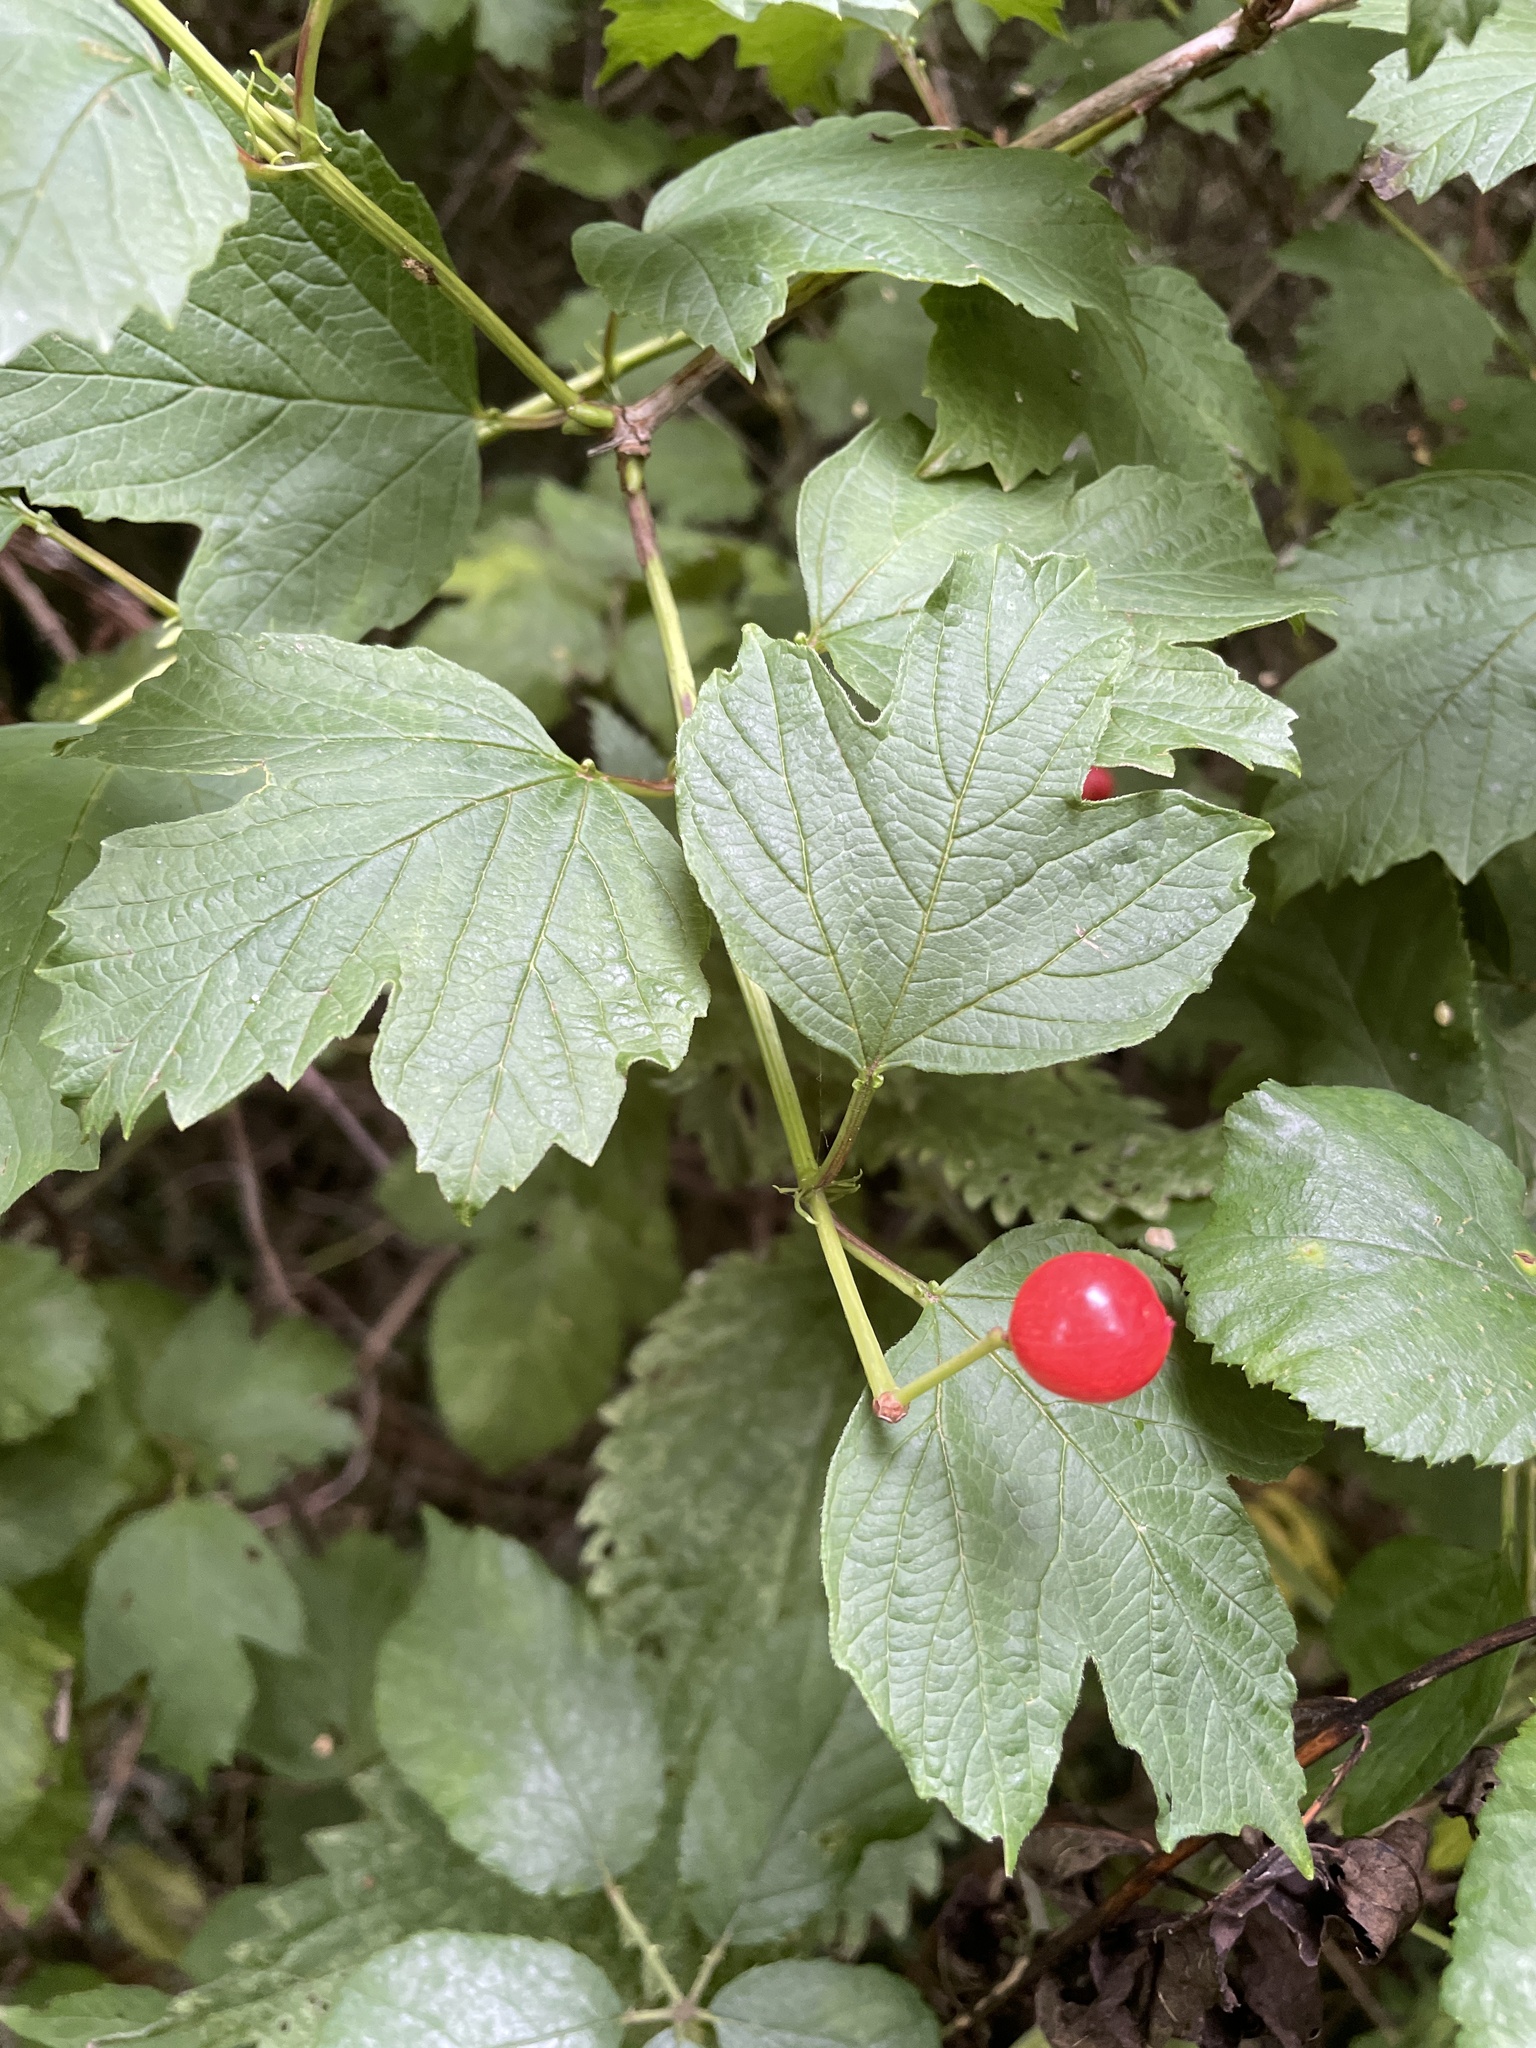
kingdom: Plantae
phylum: Tracheophyta
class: Magnoliopsida
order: Dipsacales
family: Viburnaceae
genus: Viburnum
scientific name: Viburnum opulus
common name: Guelder-rose
